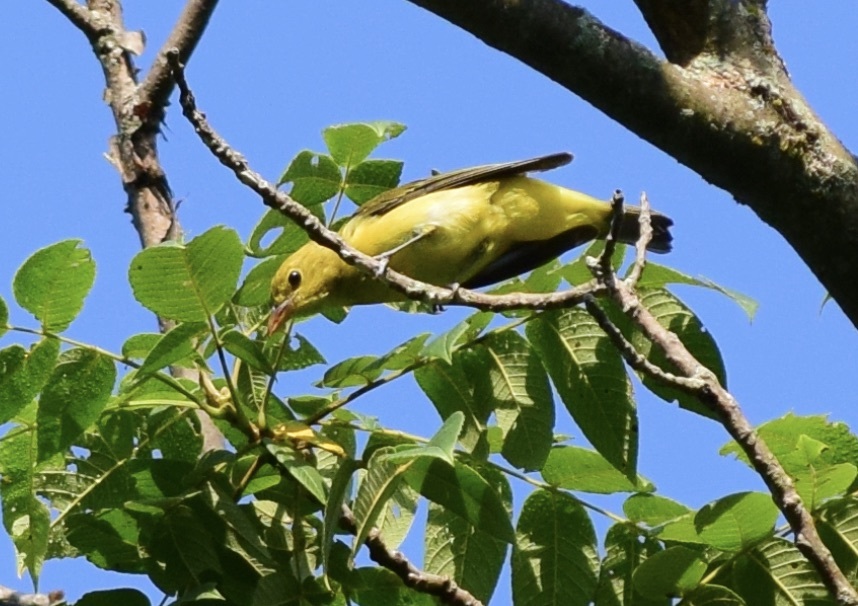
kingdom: Animalia
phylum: Chordata
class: Aves
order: Passeriformes
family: Cardinalidae
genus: Piranga
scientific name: Piranga olivacea
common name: Scarlet tanager
